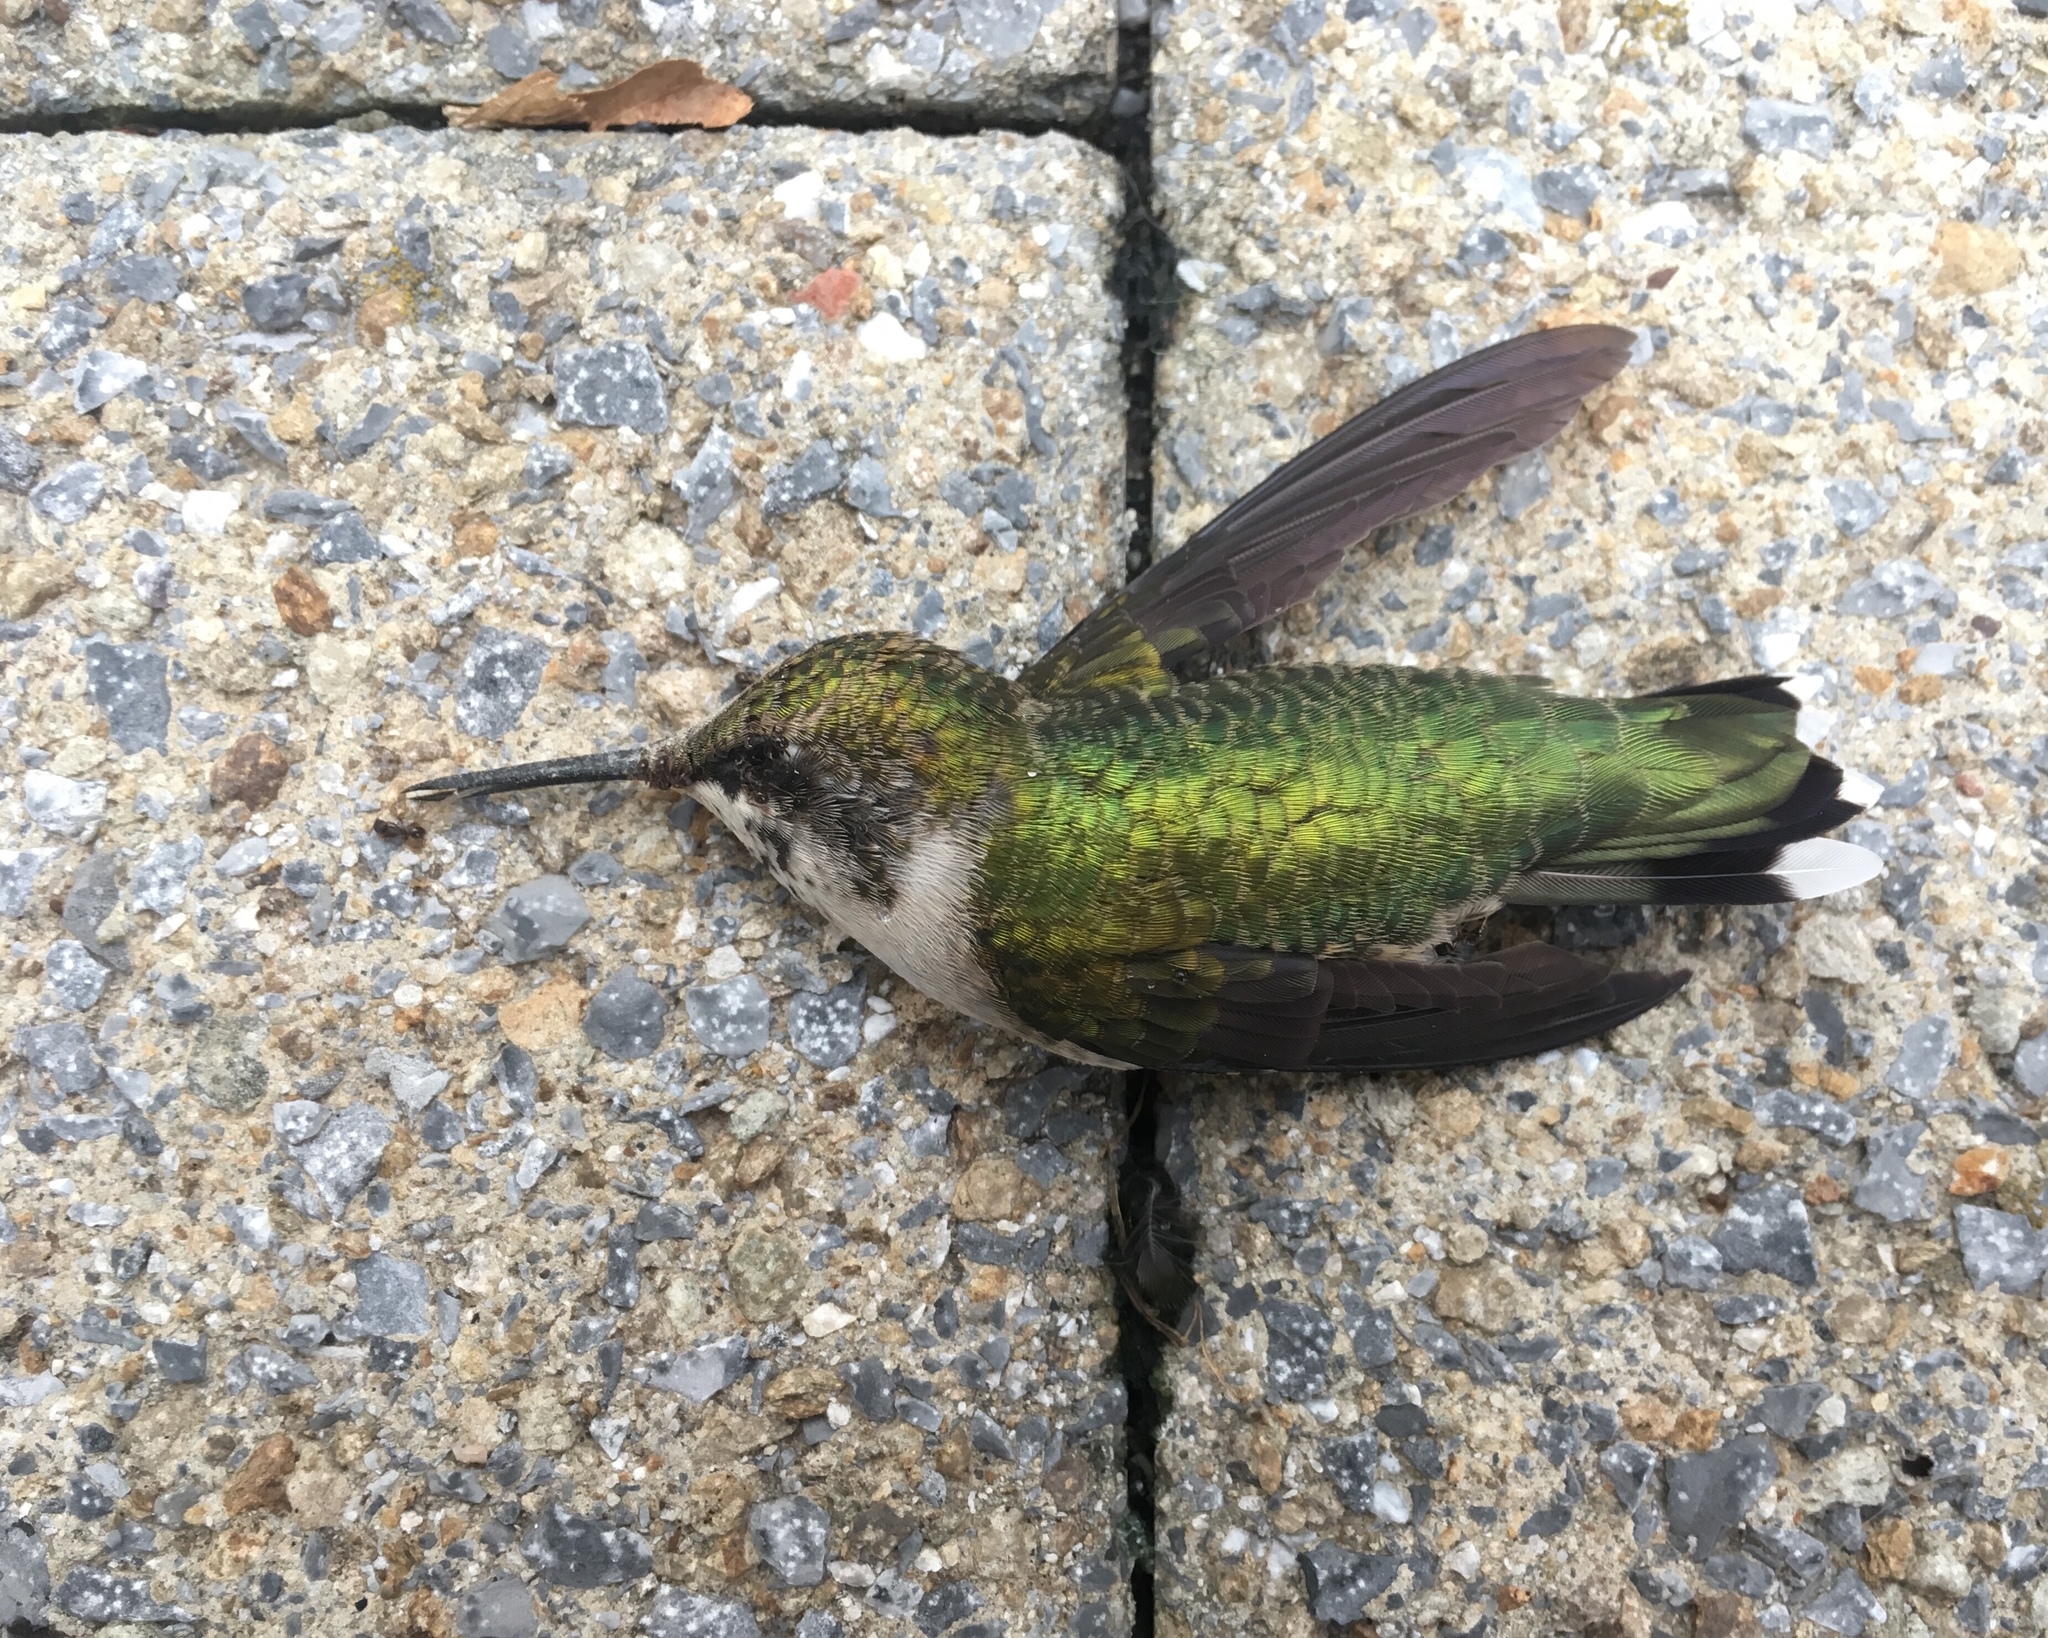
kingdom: Animalia
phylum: Chordata
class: Aves
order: Apodiformes
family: Trochilidae
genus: Archilochus
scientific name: Archilochus colubris
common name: Ruby-throated hummingbird
